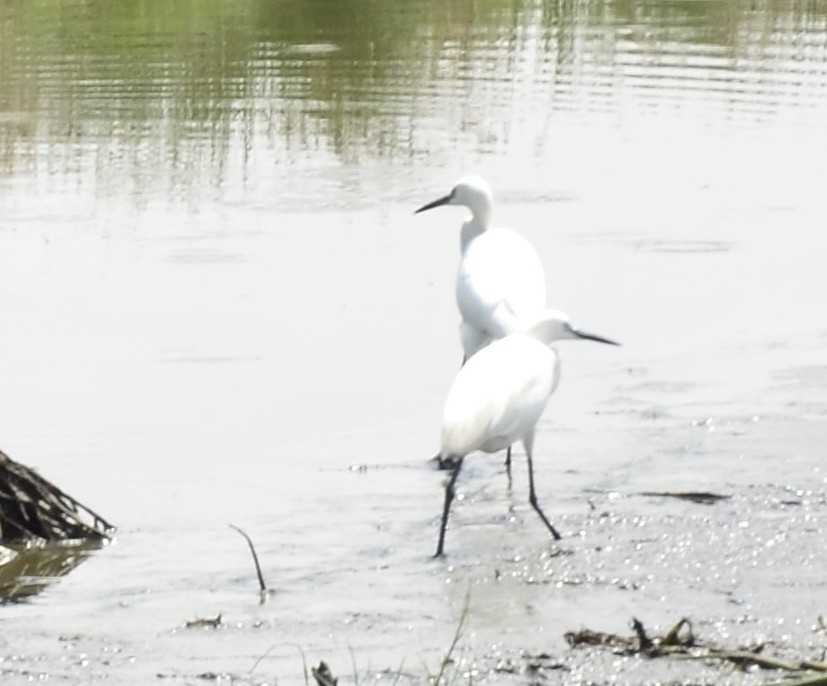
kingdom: Animalia
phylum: Chordata
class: Aves
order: Pelecaniformes
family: Ardeidae
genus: Egretta
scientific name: Egretta garzetta
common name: Little egret
